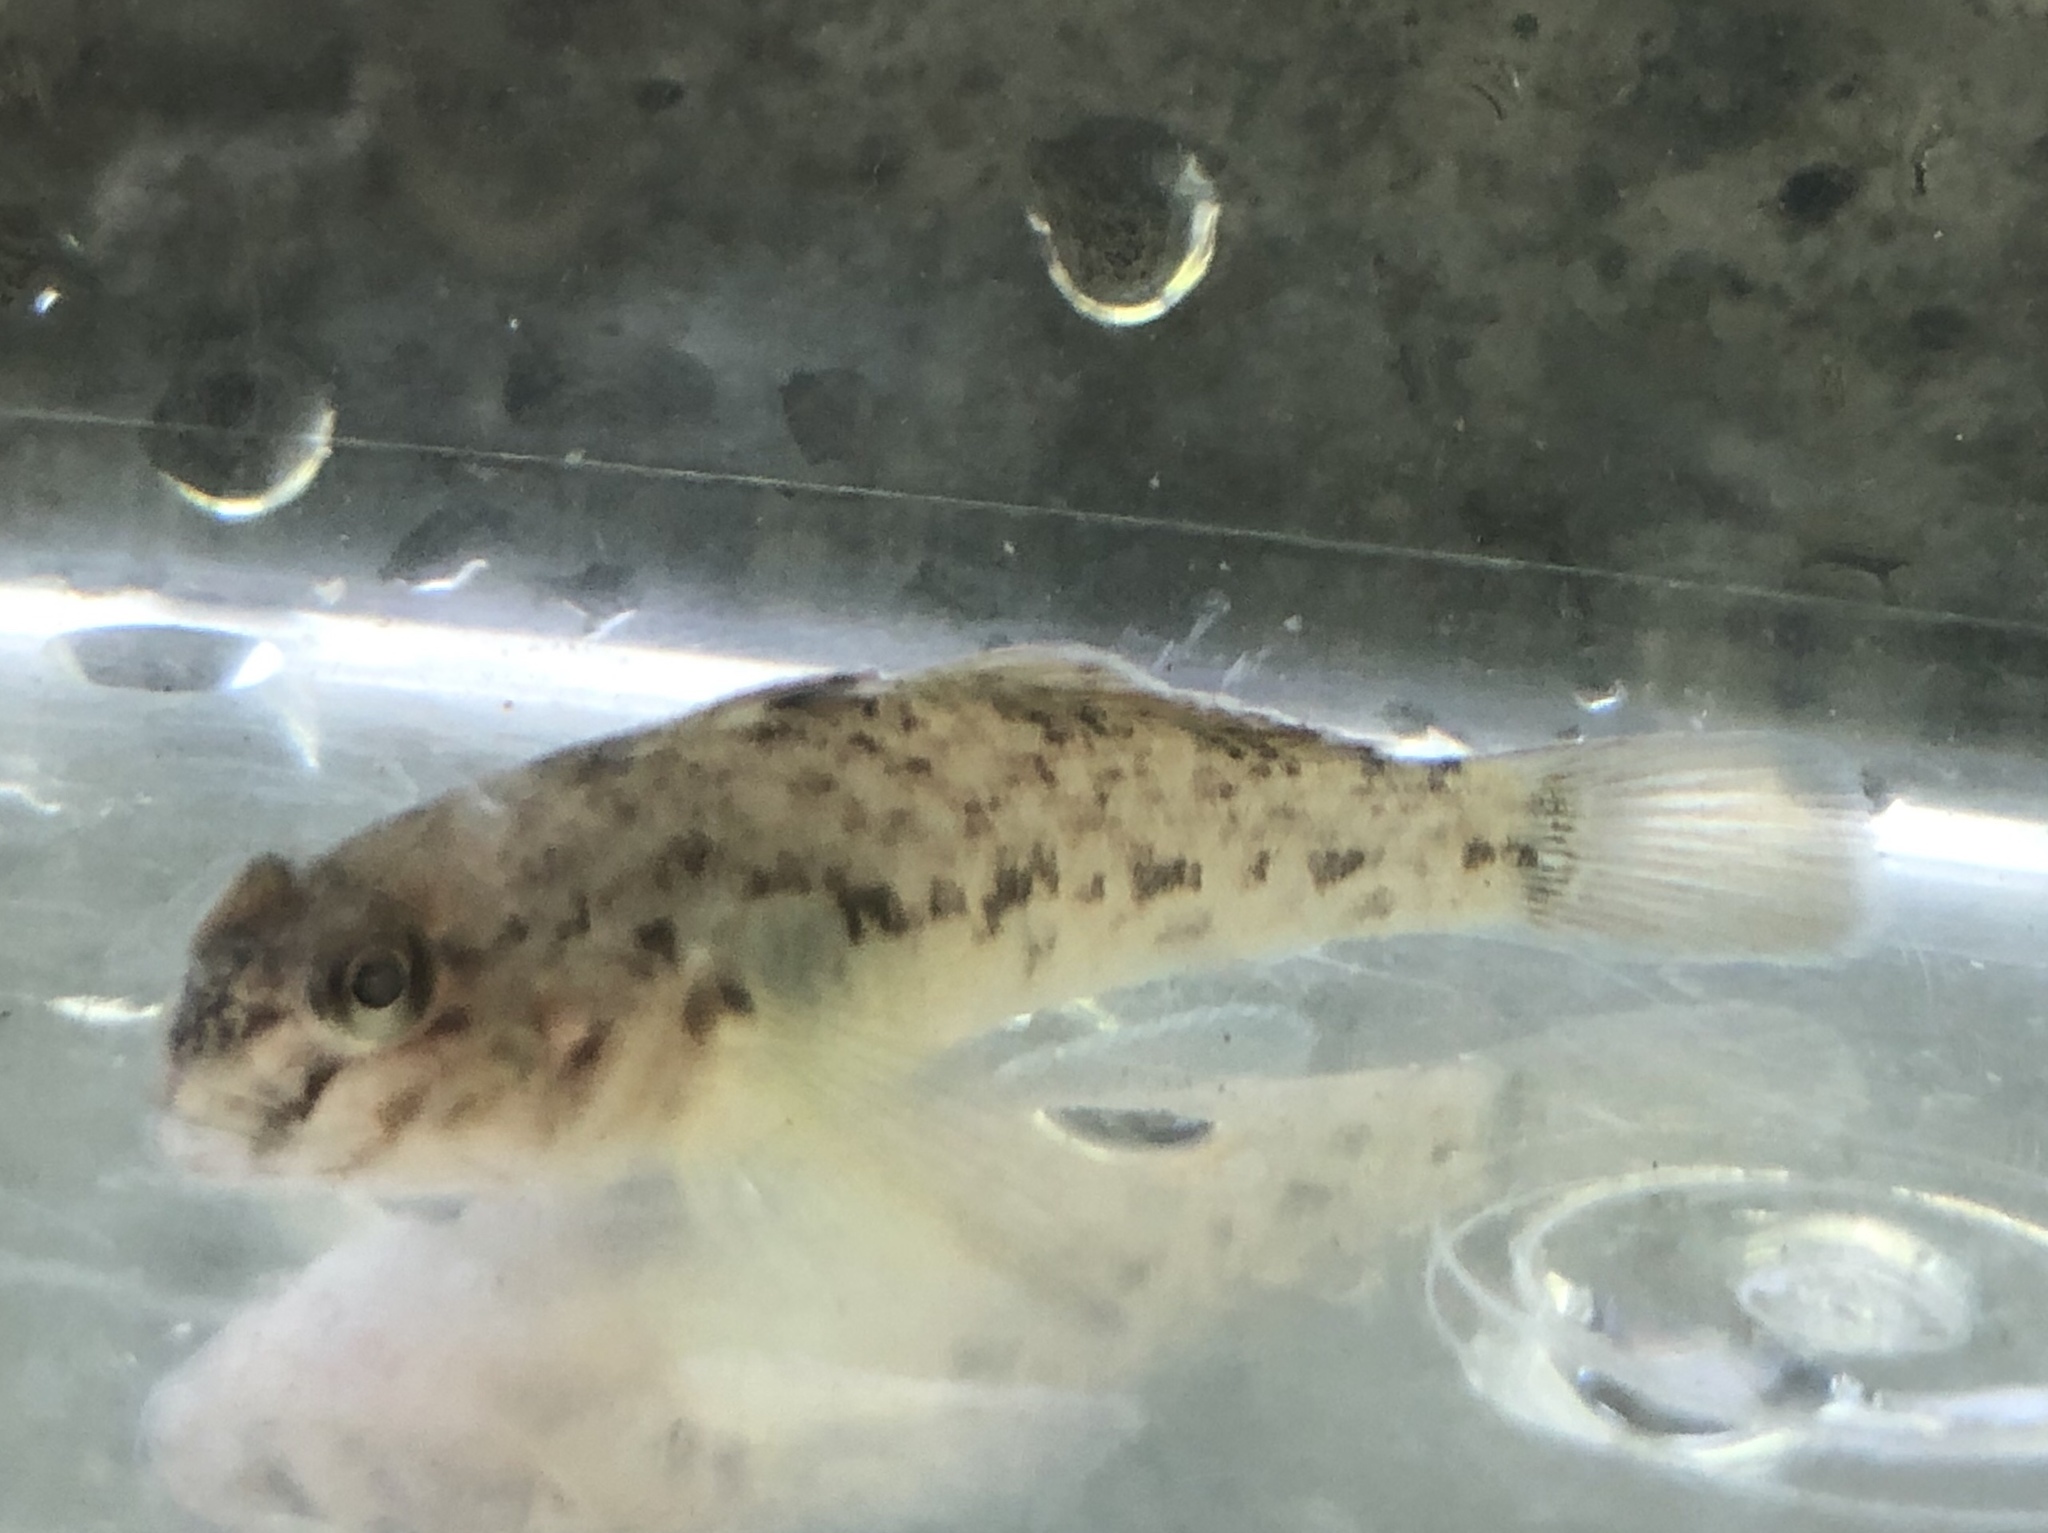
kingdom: Animalia
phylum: Chordata
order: Perciformes
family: Gobiidae
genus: Neogobius
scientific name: Neogobius melanostomus
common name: Round goby
